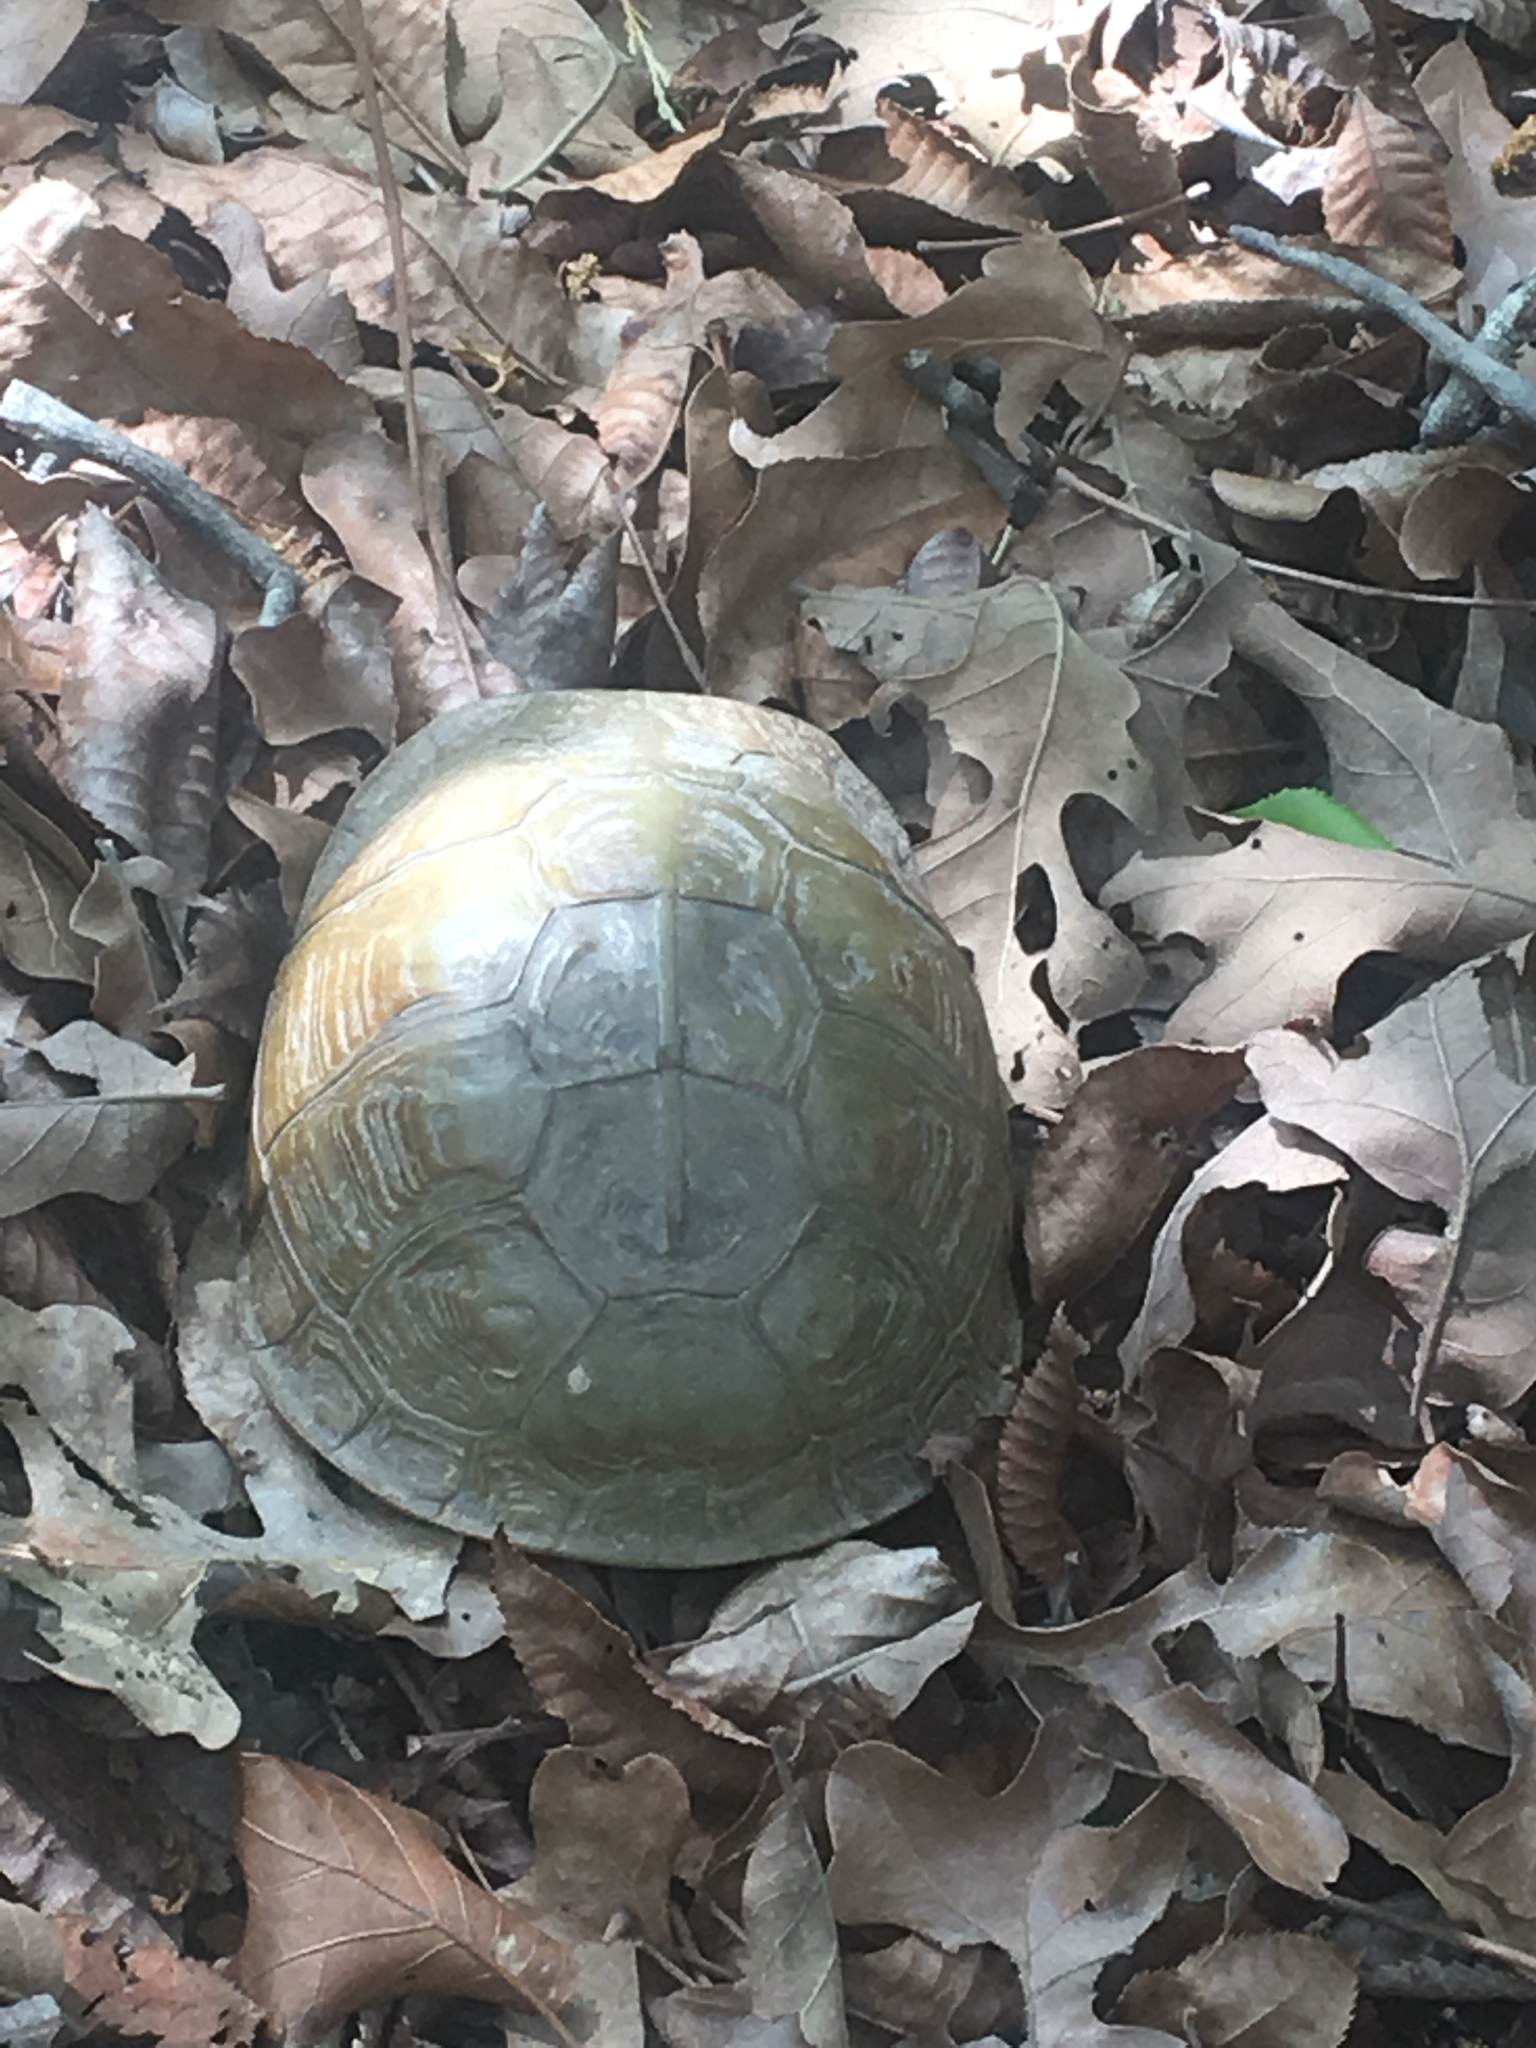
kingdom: Animalia
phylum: Chordata
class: Testudines
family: Emydidae
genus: Terrapene
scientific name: Terrapene carolina
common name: Common box turtle
